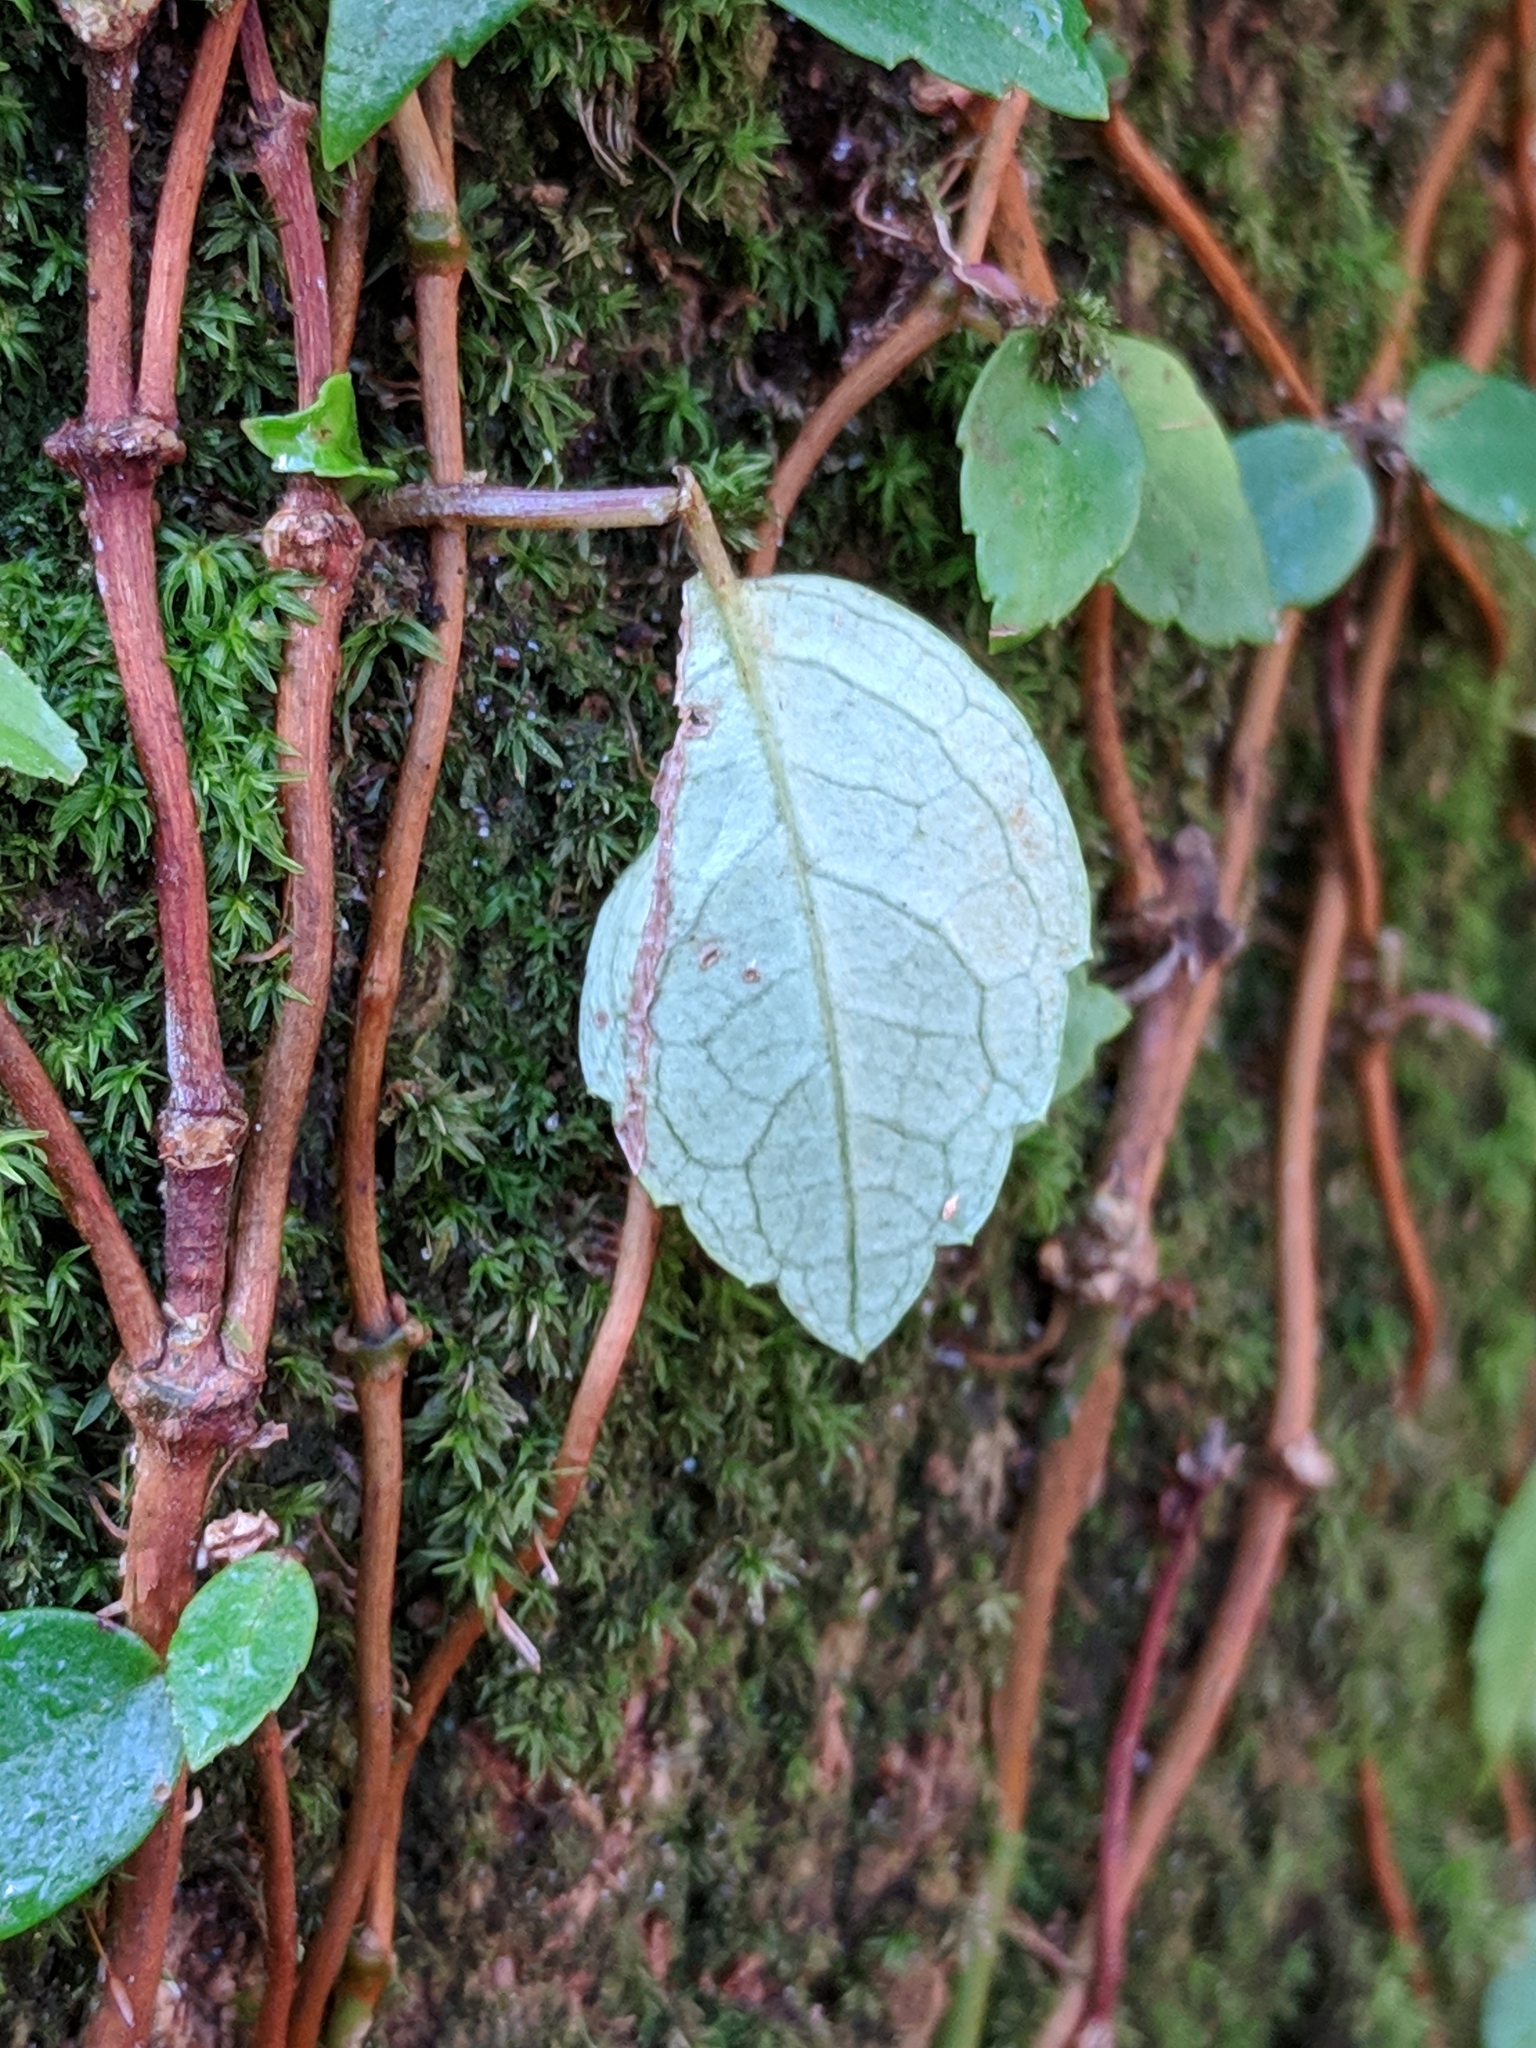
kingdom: Plantae
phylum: Tracheophyta
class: Magnoliopsida
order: Cornales
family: Hydrangeaceae
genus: Hydrangea
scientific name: Hydrangea barbara
